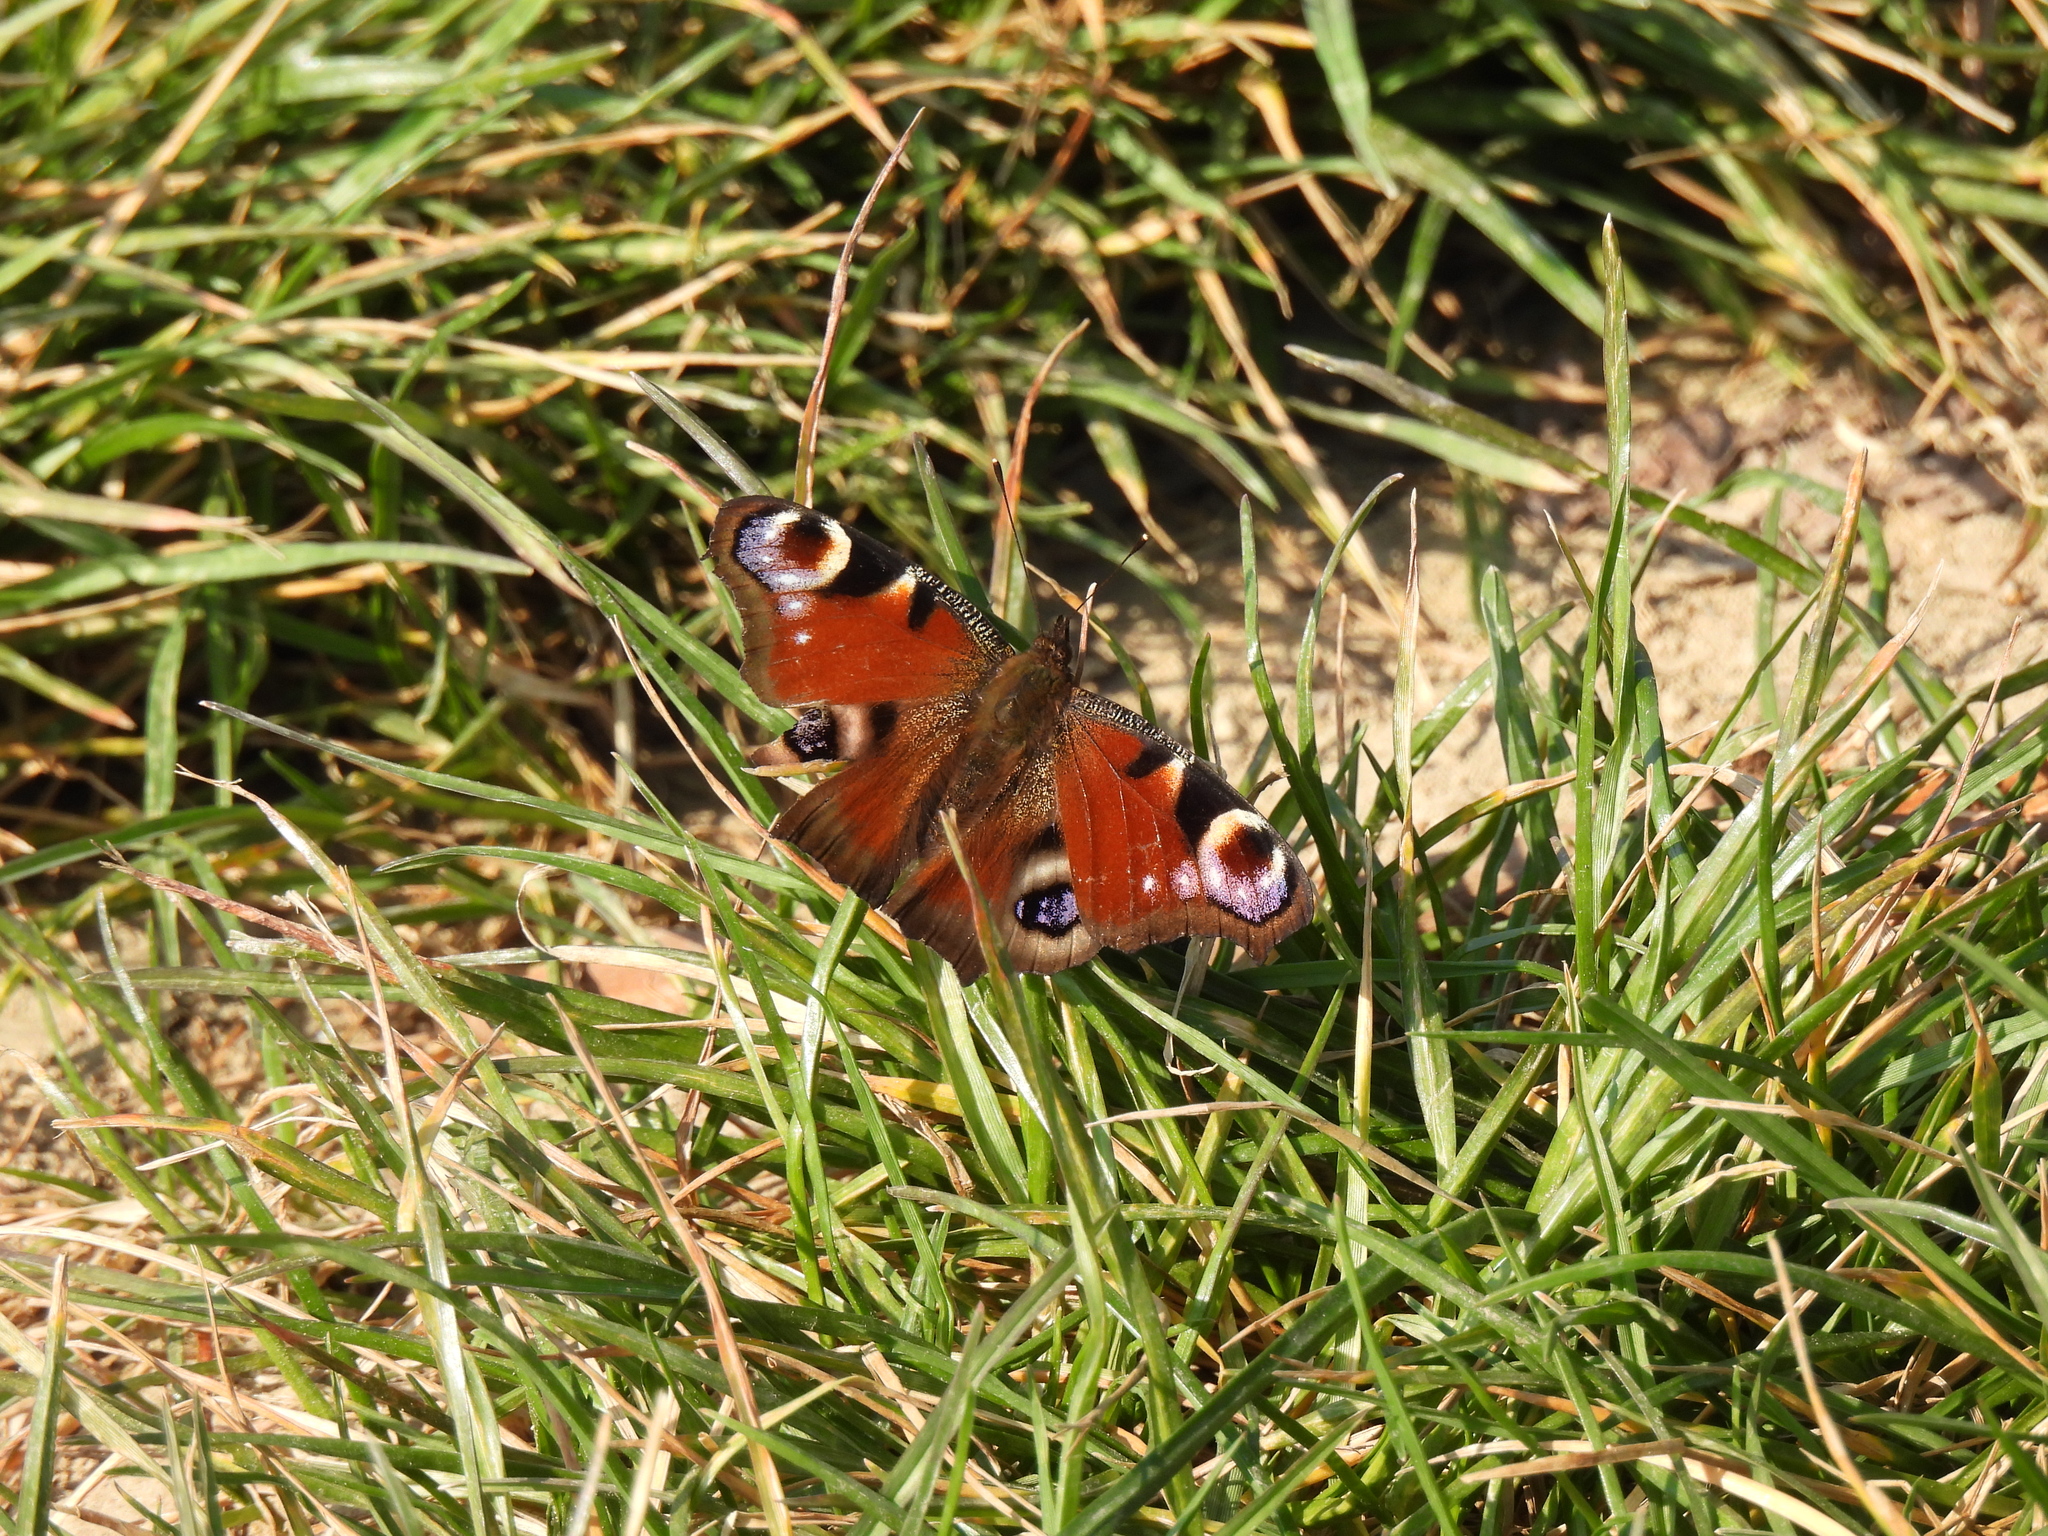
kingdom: Animalia
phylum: Arthropoda
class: Insecta
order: Lepidoptera
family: Nymphalidae
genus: Aglais
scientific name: Aglais io
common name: Peacock
